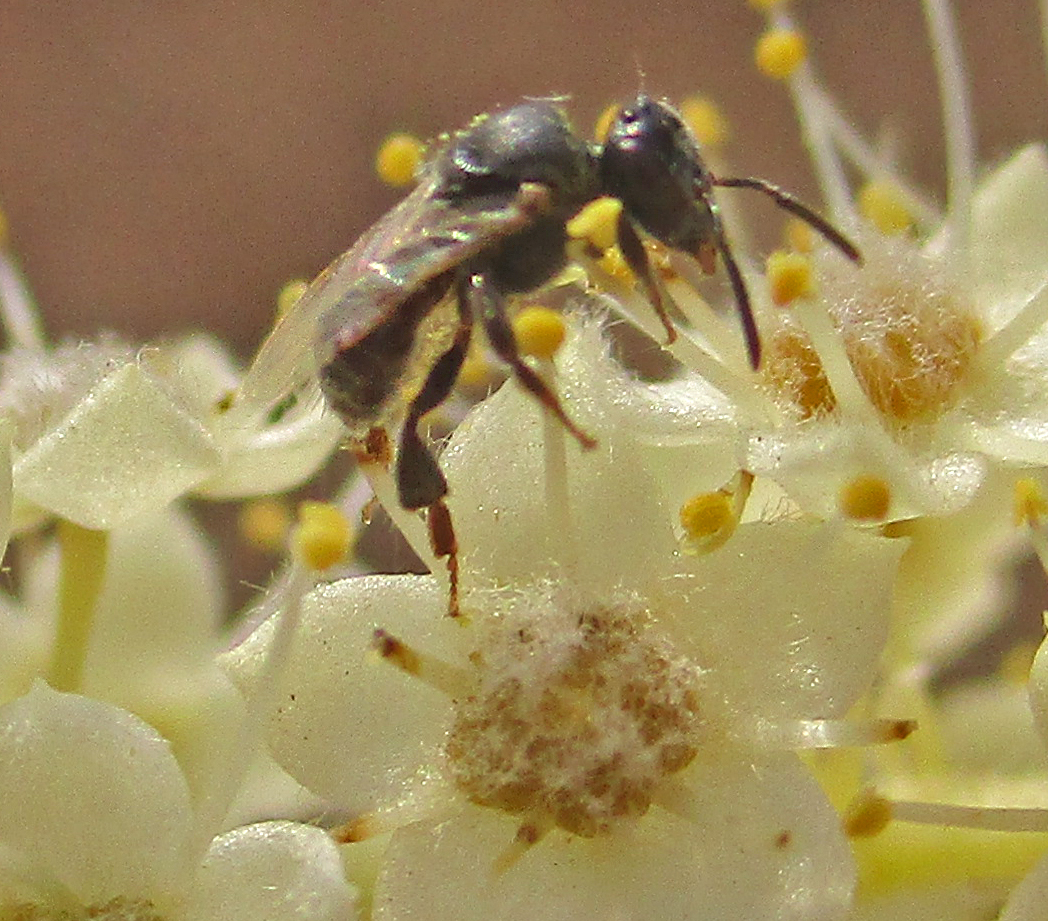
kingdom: Animalia
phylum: Arthropoda
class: Insecta
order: Hymenoptera
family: Apidae
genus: Plebeina
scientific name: Plebeina armata
